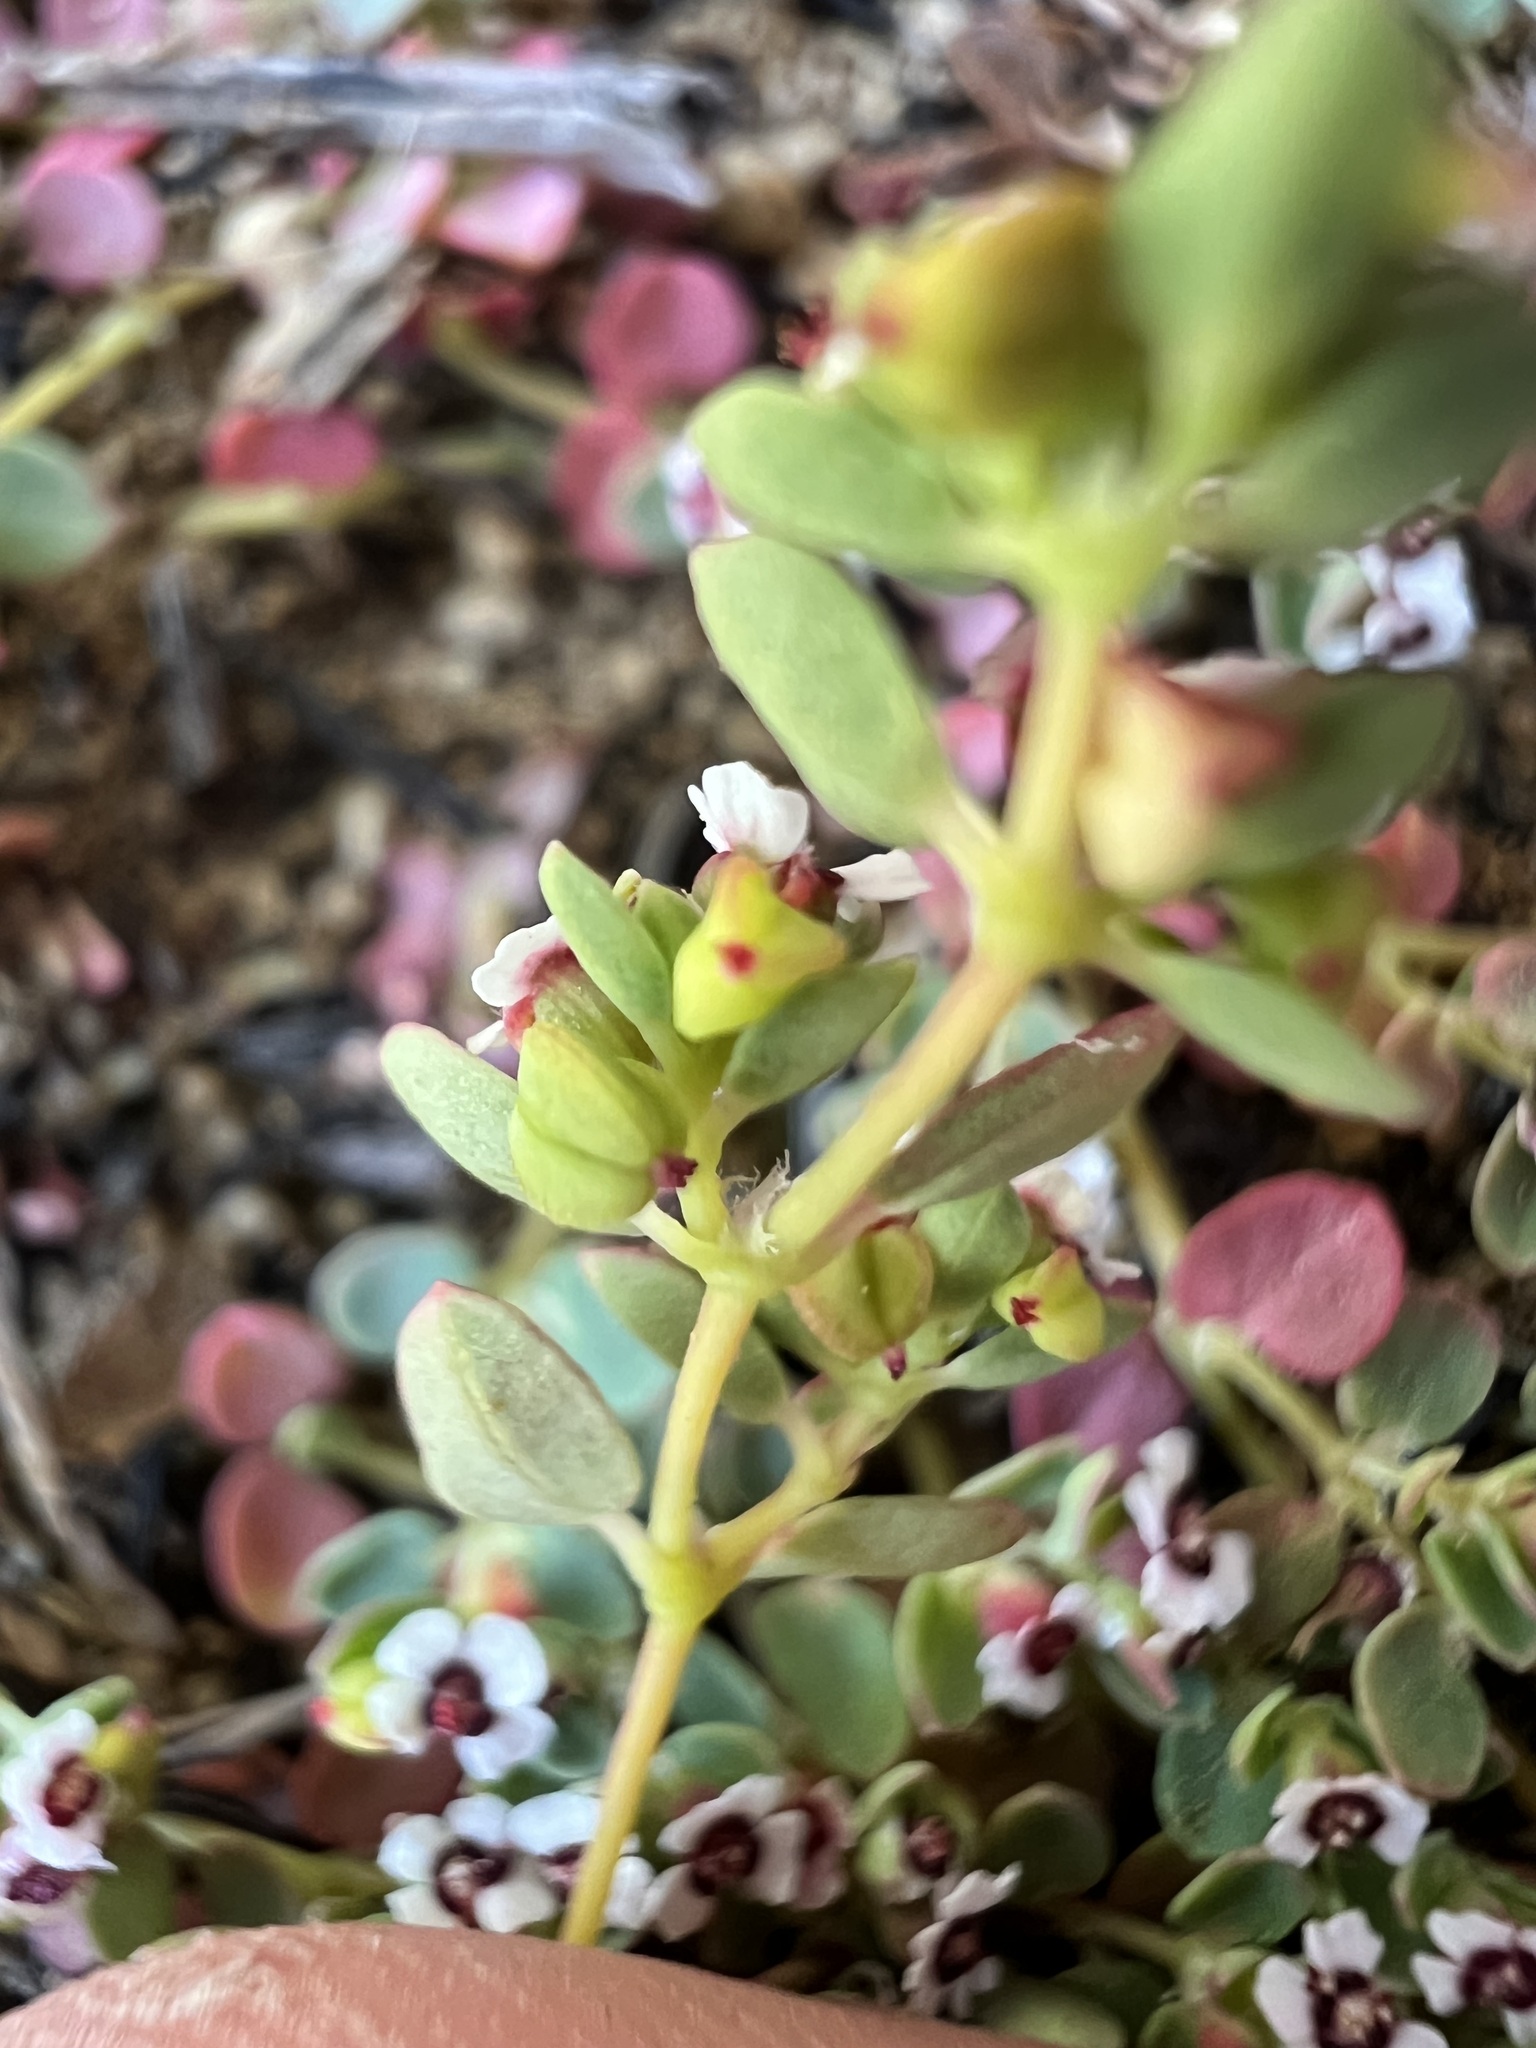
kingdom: Plantae
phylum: Tracheophyta
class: Magnoliopsida
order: Malpighiales
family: Euphorbiaceae
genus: Euphorbia
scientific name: Euphorbia polycarpa
